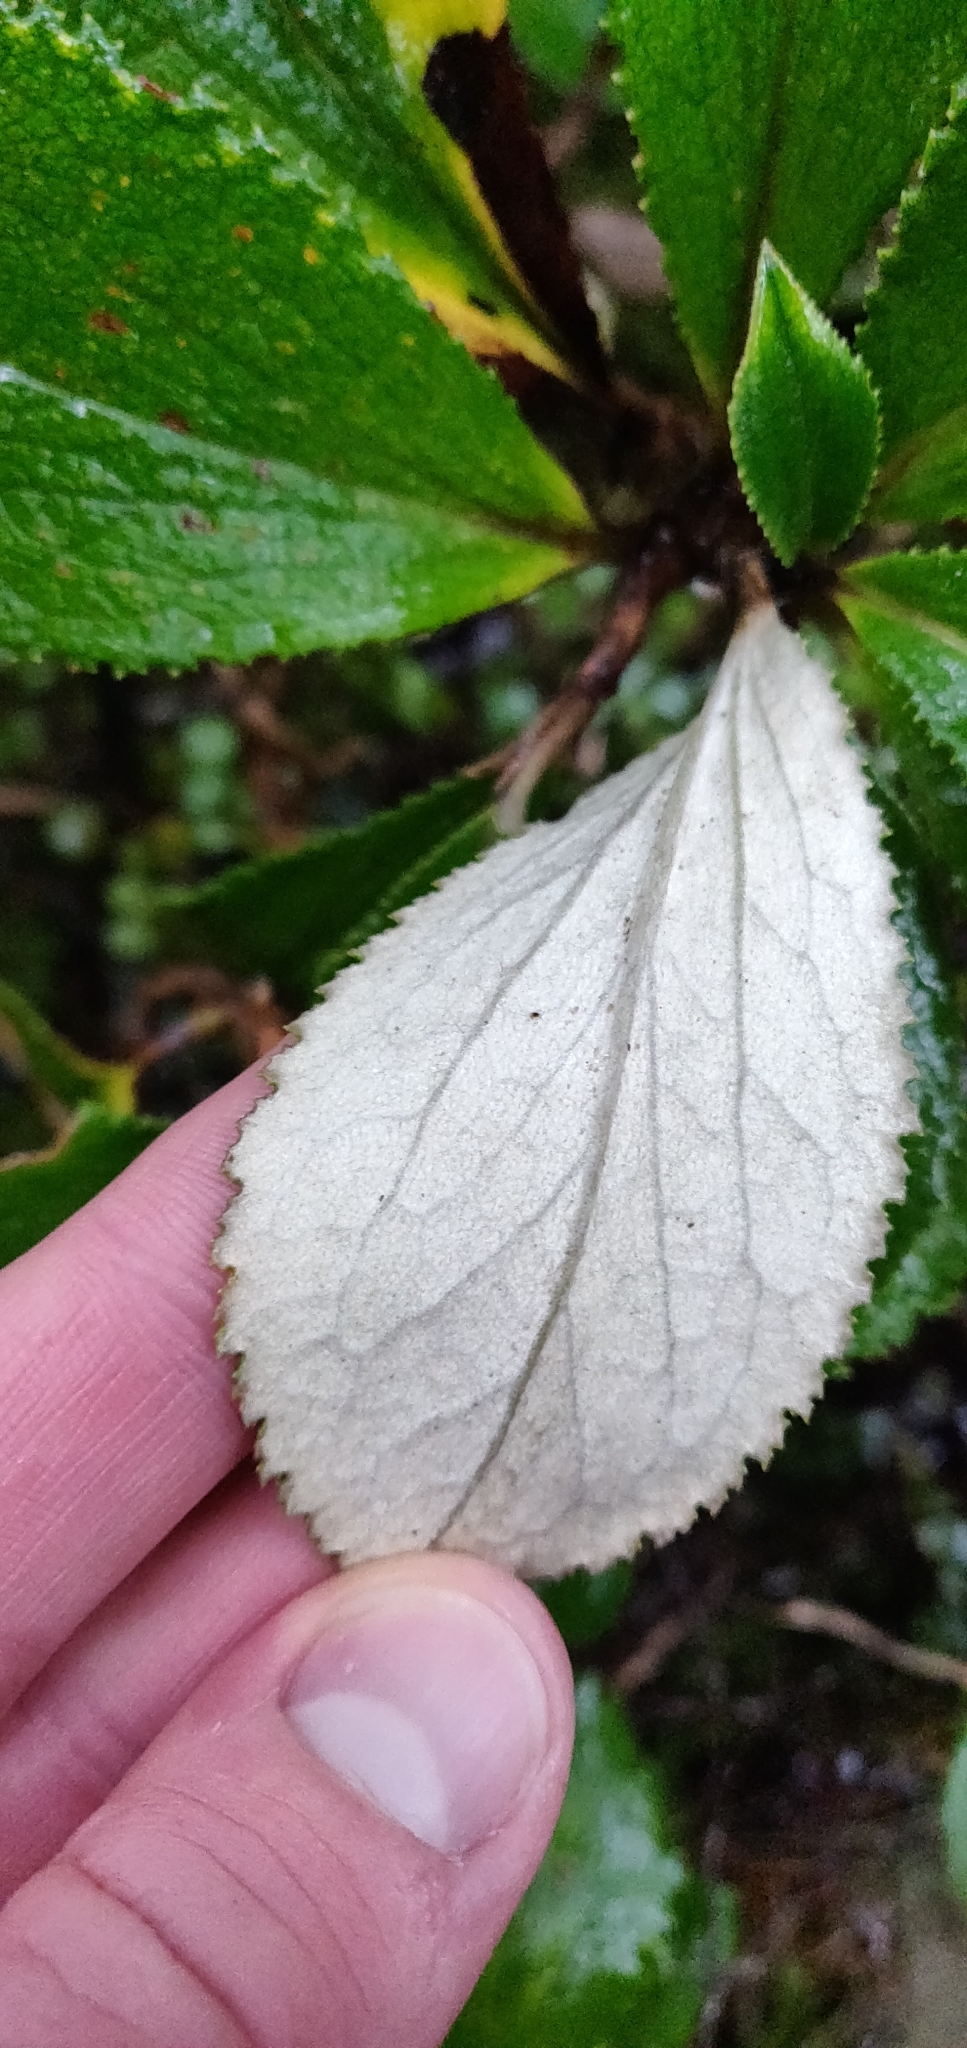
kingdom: Plantae
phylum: Tracheophyta
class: Magnoliopsida
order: Asterales
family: Asteraceae
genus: Macrolearia
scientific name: Macrolearia colensoi
